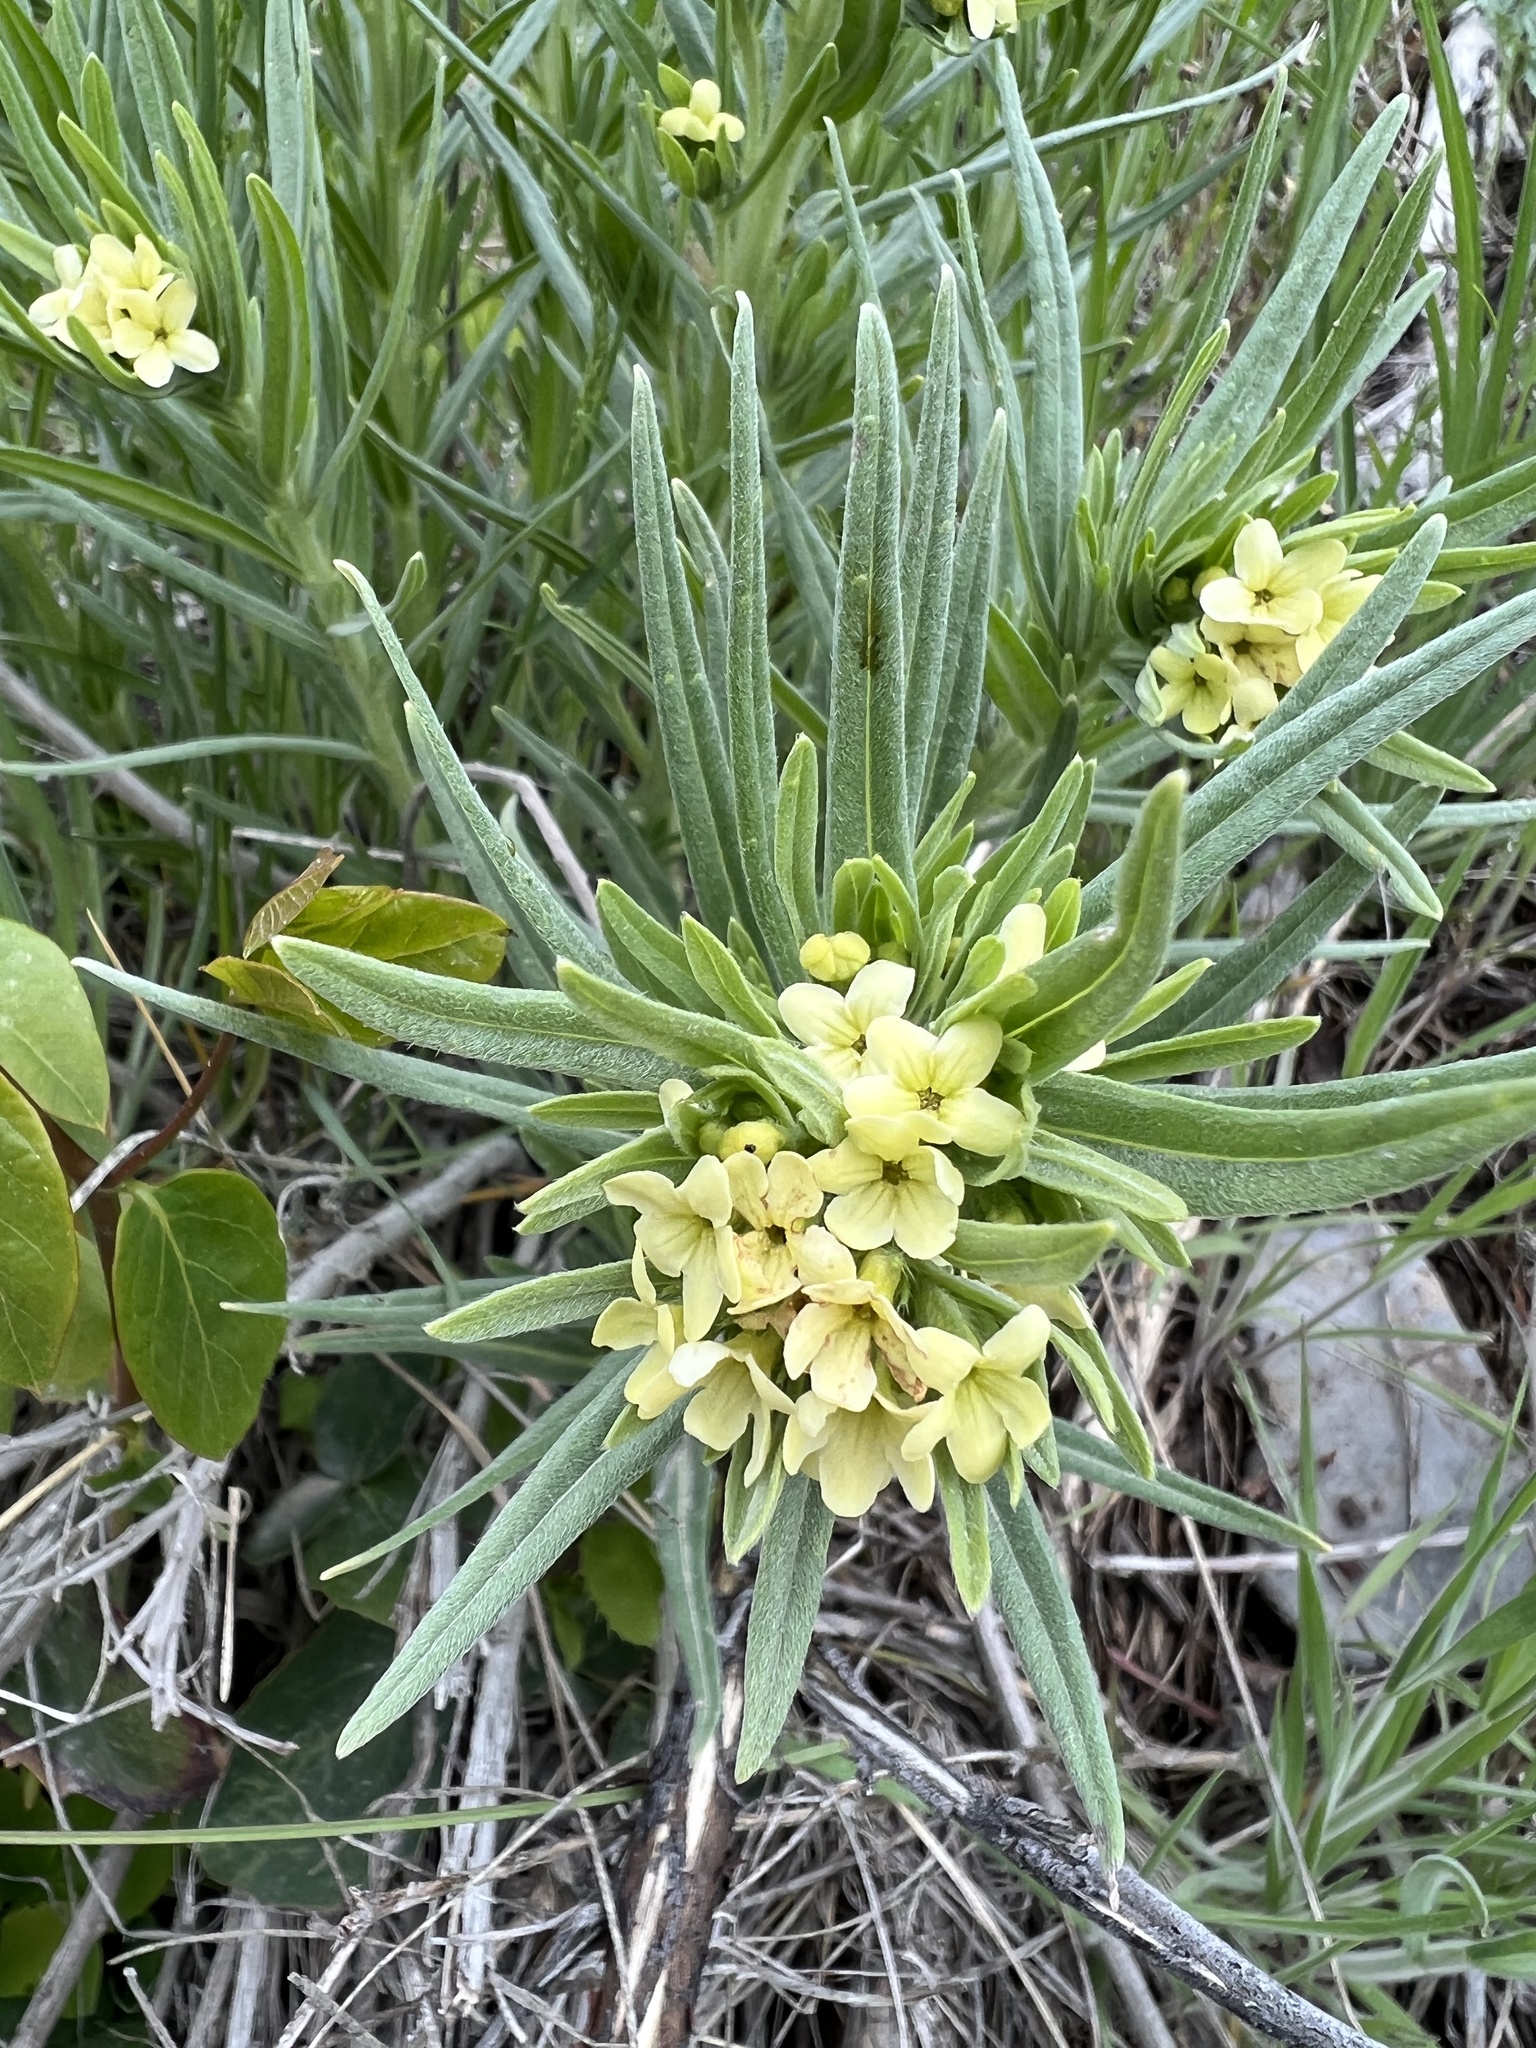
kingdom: Plantae
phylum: Tracheophyta
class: Magnoliopsida
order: Boraginales
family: Boraginaceae
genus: Lithospermum
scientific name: Lithospermum ruderale
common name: Western gromwell
